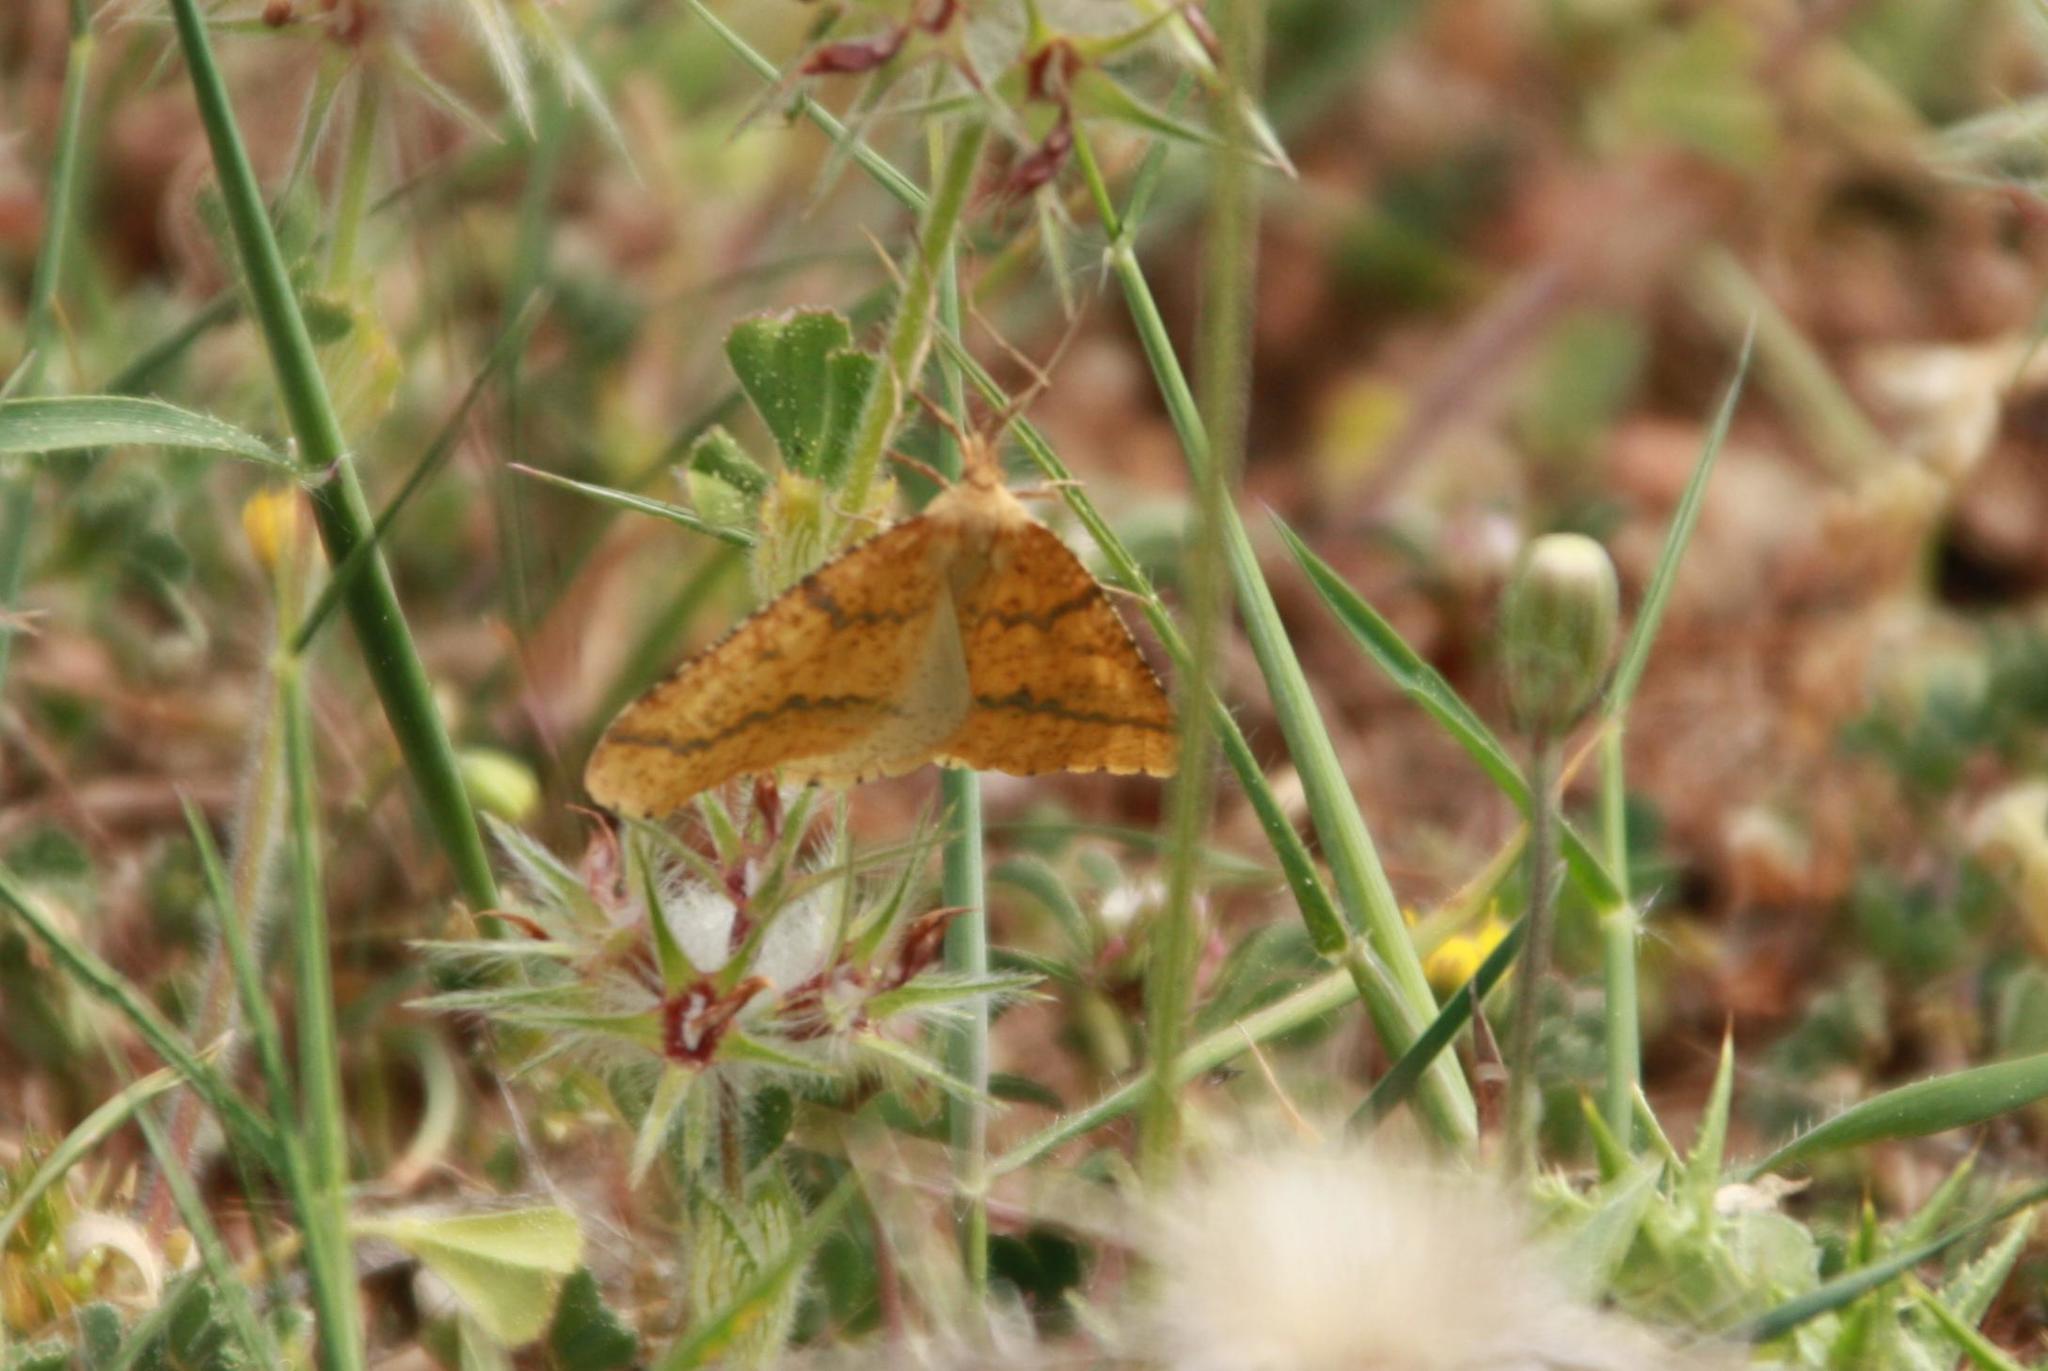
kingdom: Animalia
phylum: Arthropoda
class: Insecta
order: Lepidoptera
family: Geometridae
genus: Aspitates
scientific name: Aspitates ochrearia
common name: Yellow belle
